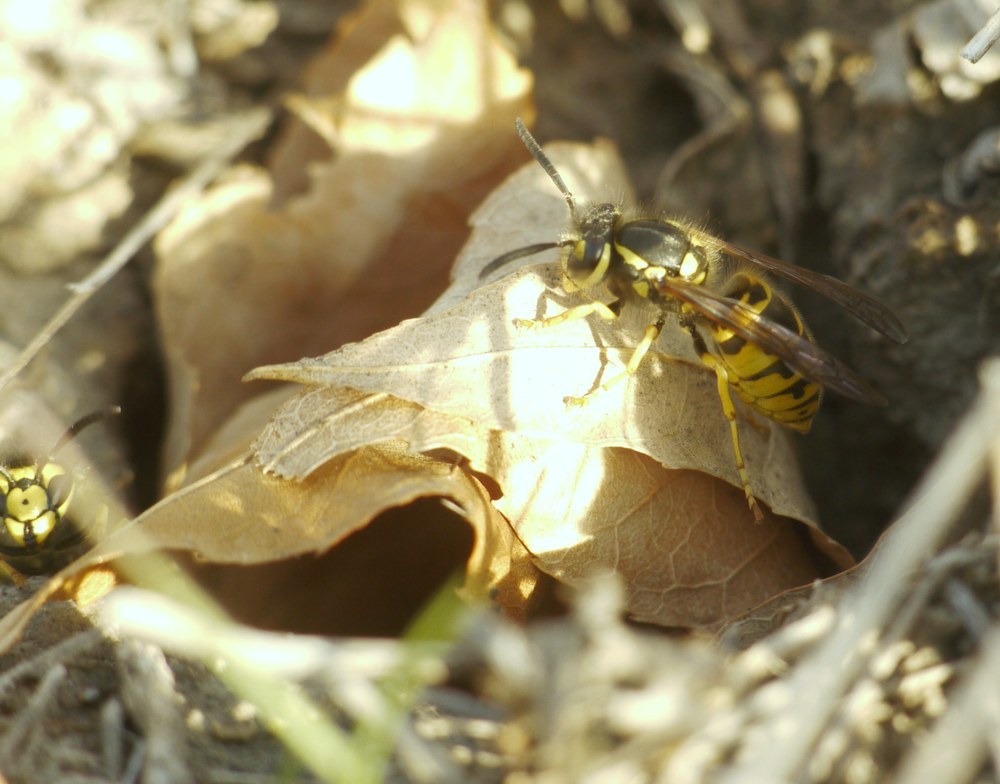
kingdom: Animalia
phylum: Arthropoda
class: Insecta
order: Hymenoptera
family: Vespidae
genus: Vespula
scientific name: Vespula germanica
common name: German wasp
